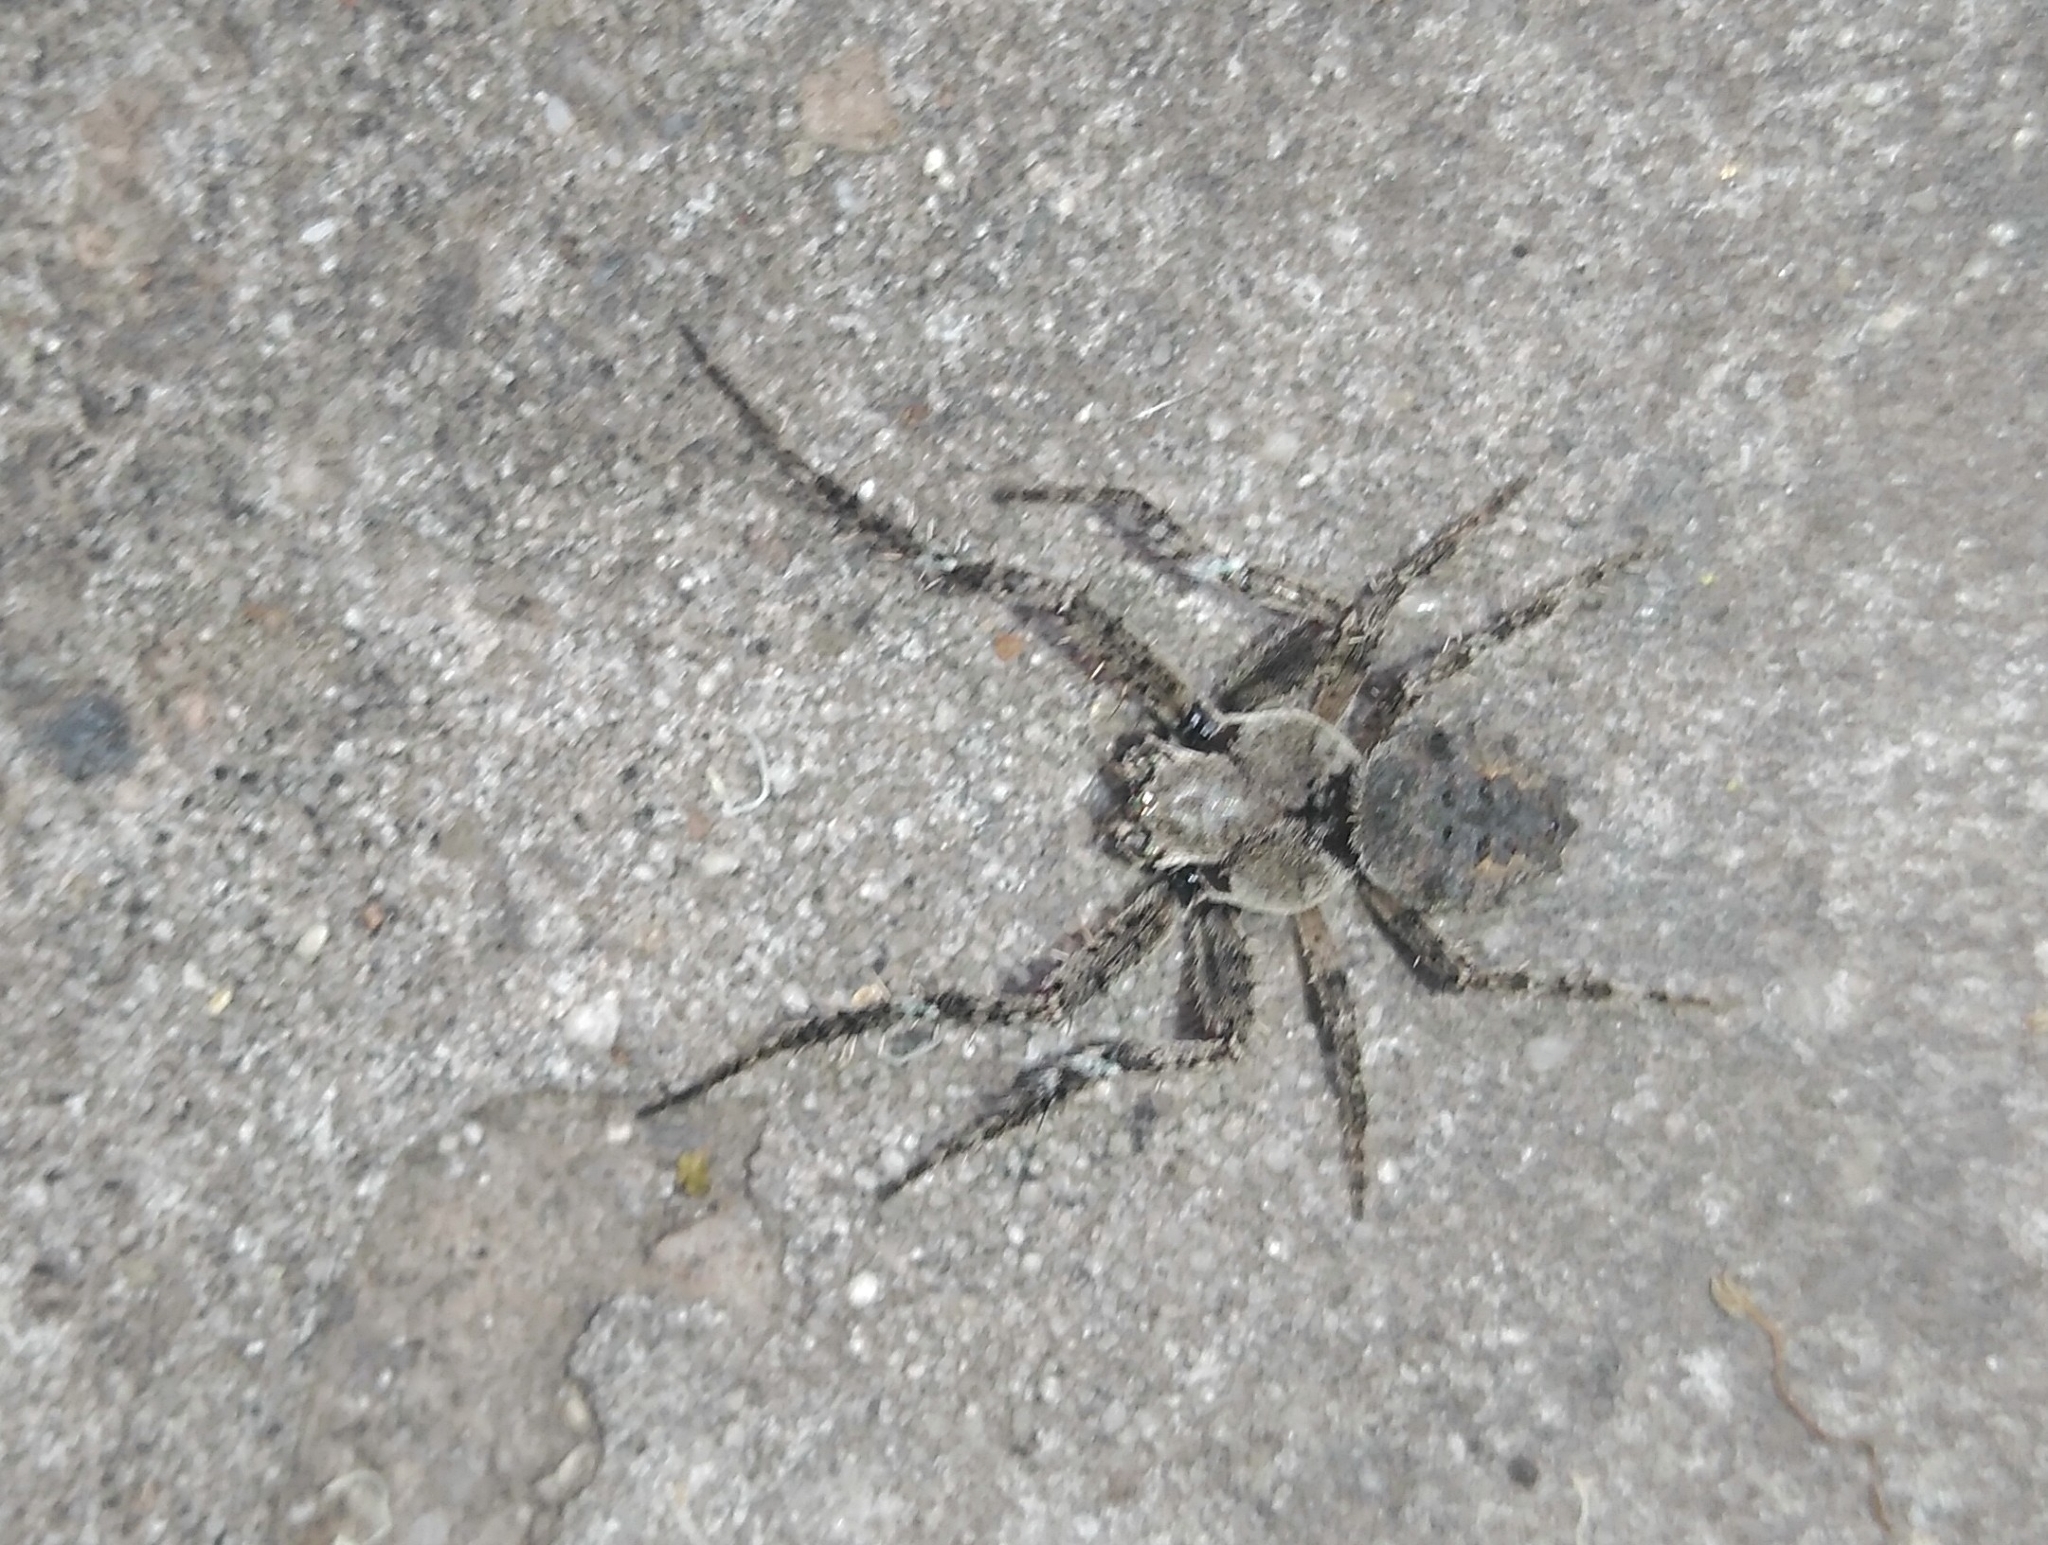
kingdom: Animalia
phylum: Arthropoda
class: Arachnida
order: Araneae
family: Araneidae
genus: Parawixia
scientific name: Parawixia audax
